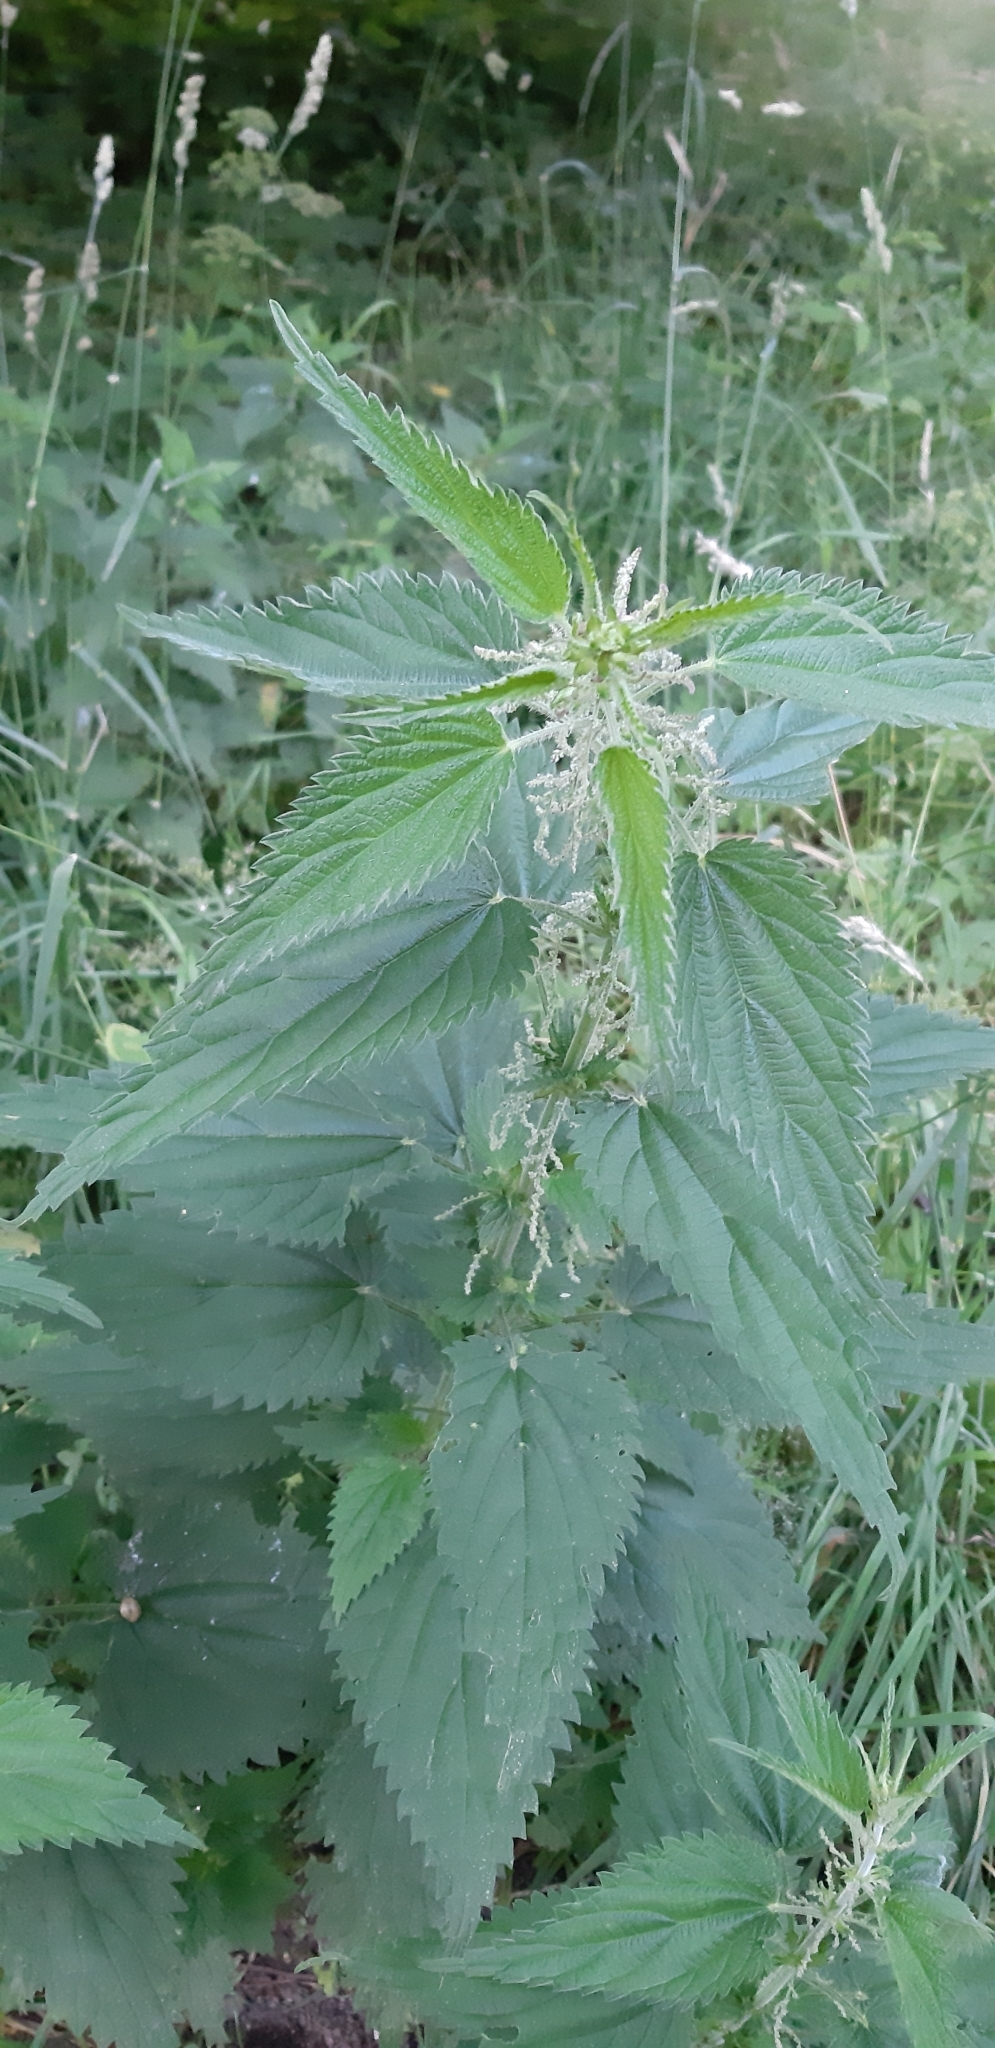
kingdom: Plantae
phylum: Tracheophyta
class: Magnoliopsida
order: Rosales
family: Urticaceae
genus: Urtica
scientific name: Urtica dioica
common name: Common nettle
